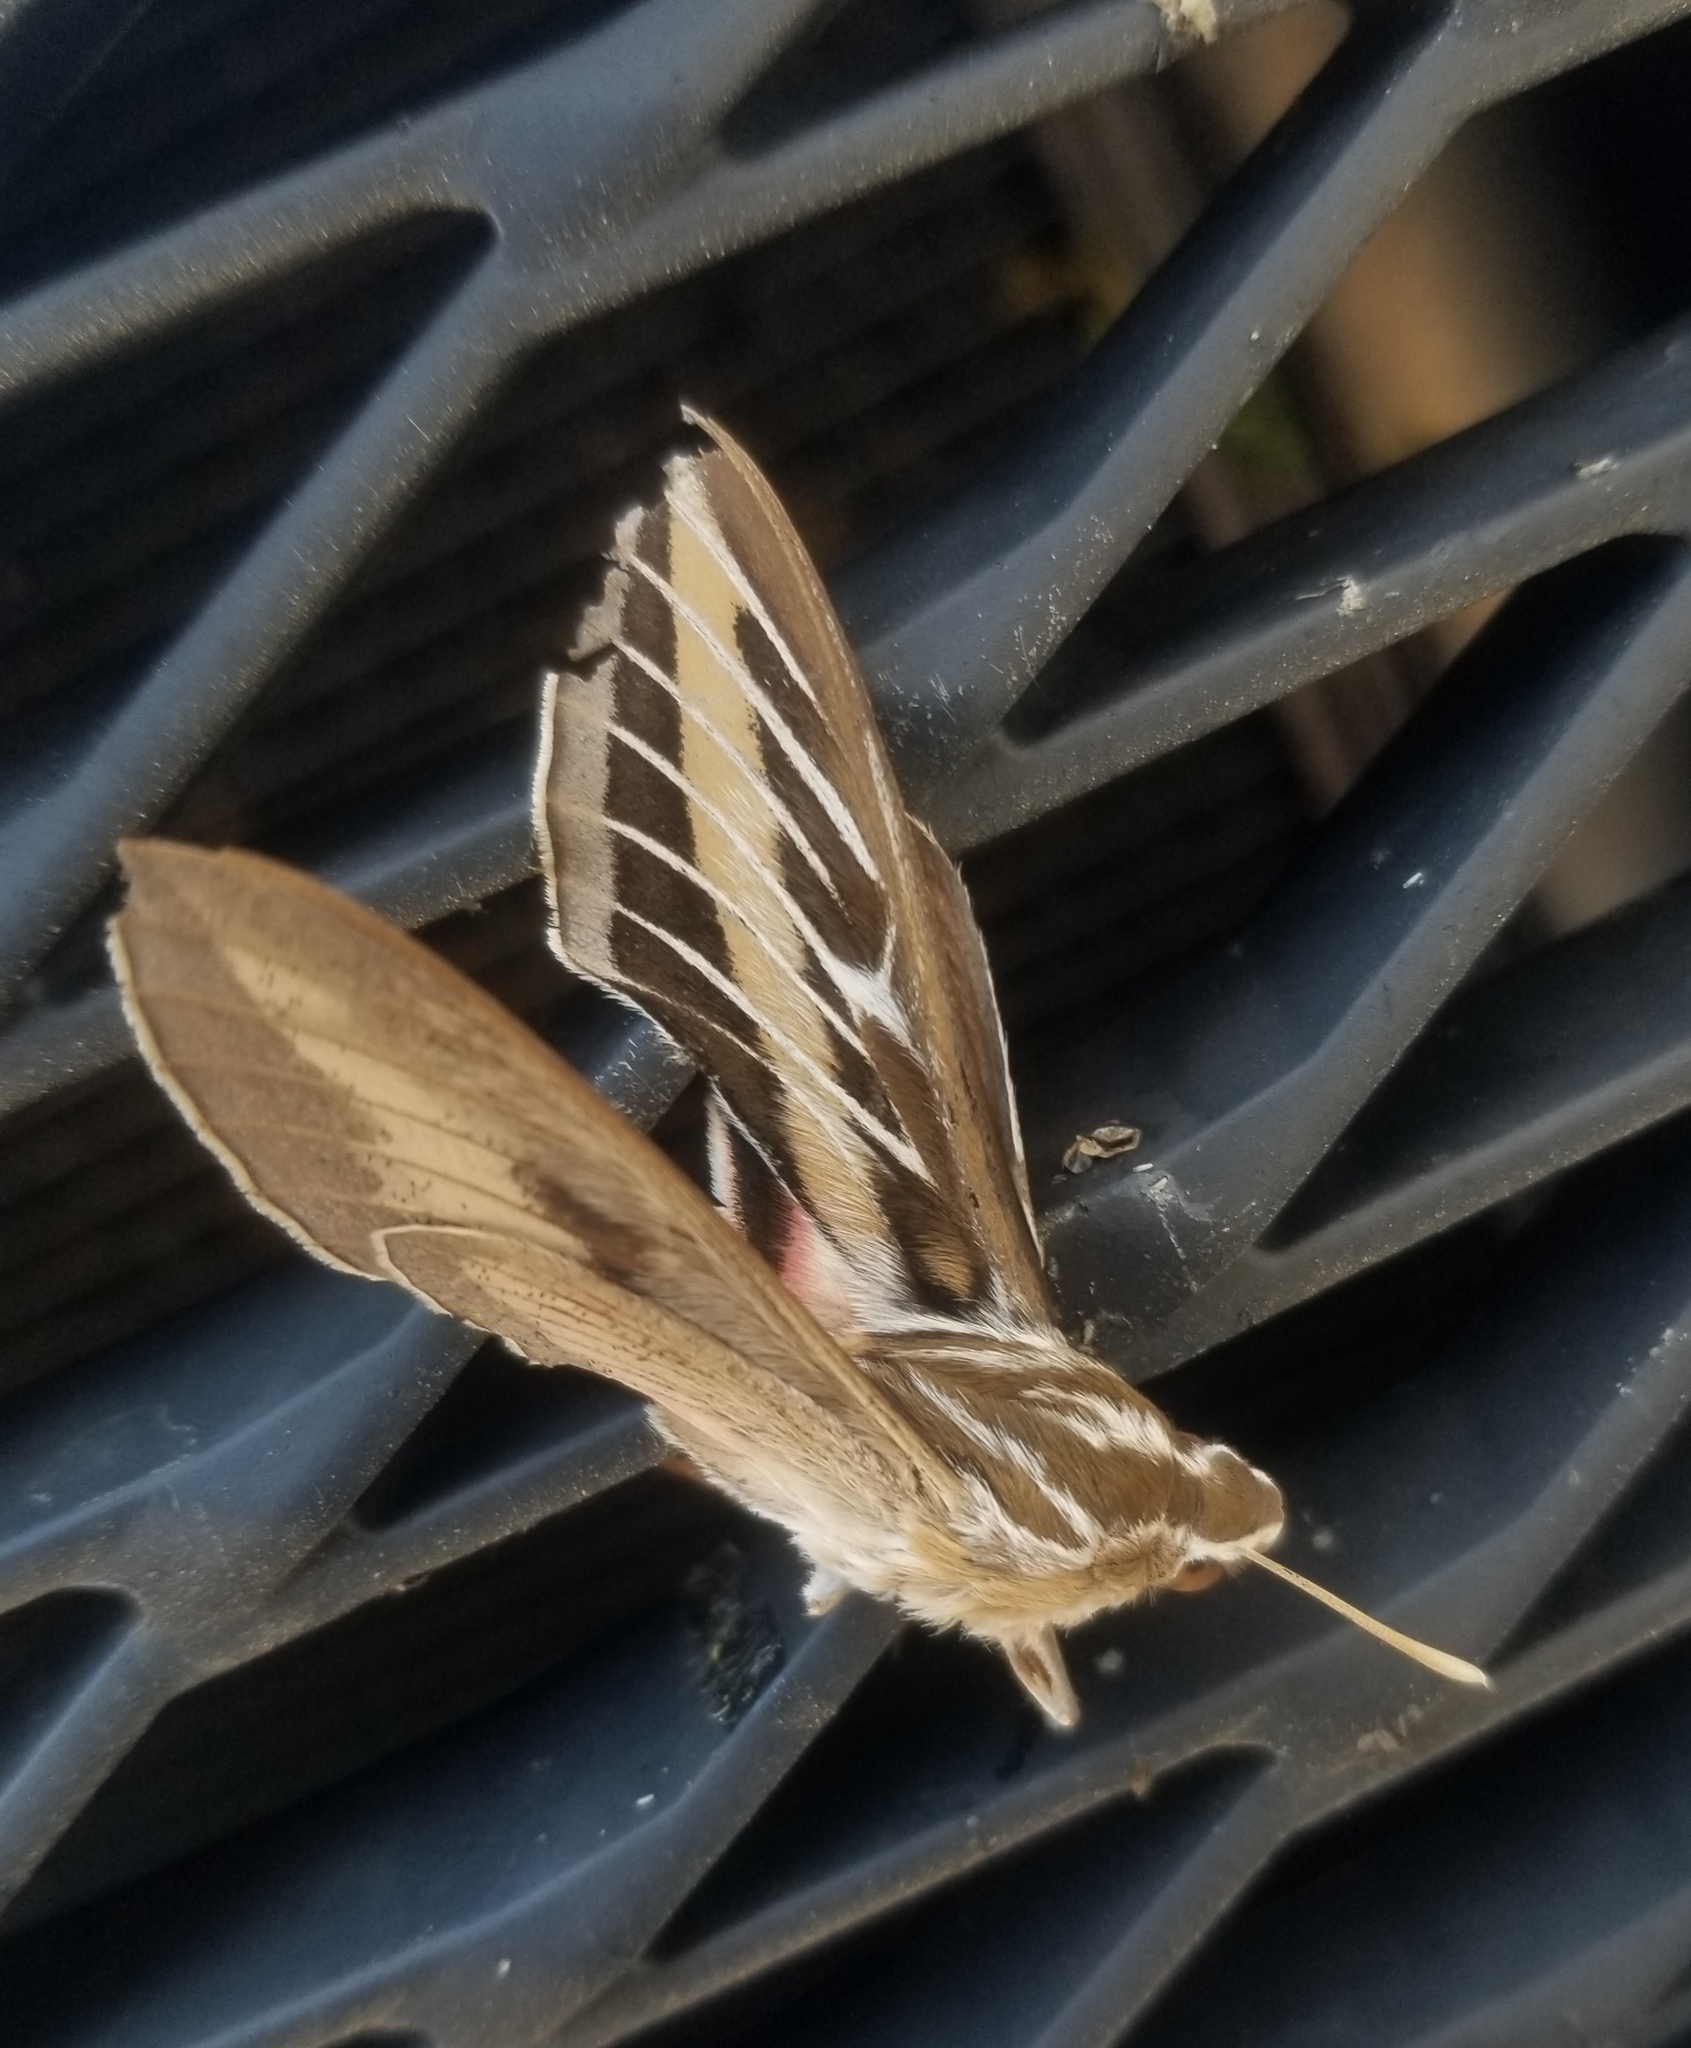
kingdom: Animalia
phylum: Arthropoda
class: Insecta
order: Lepidoptera
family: Sphingidae
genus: Hyles
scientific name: Hyles lineata
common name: White-lined sphinx
